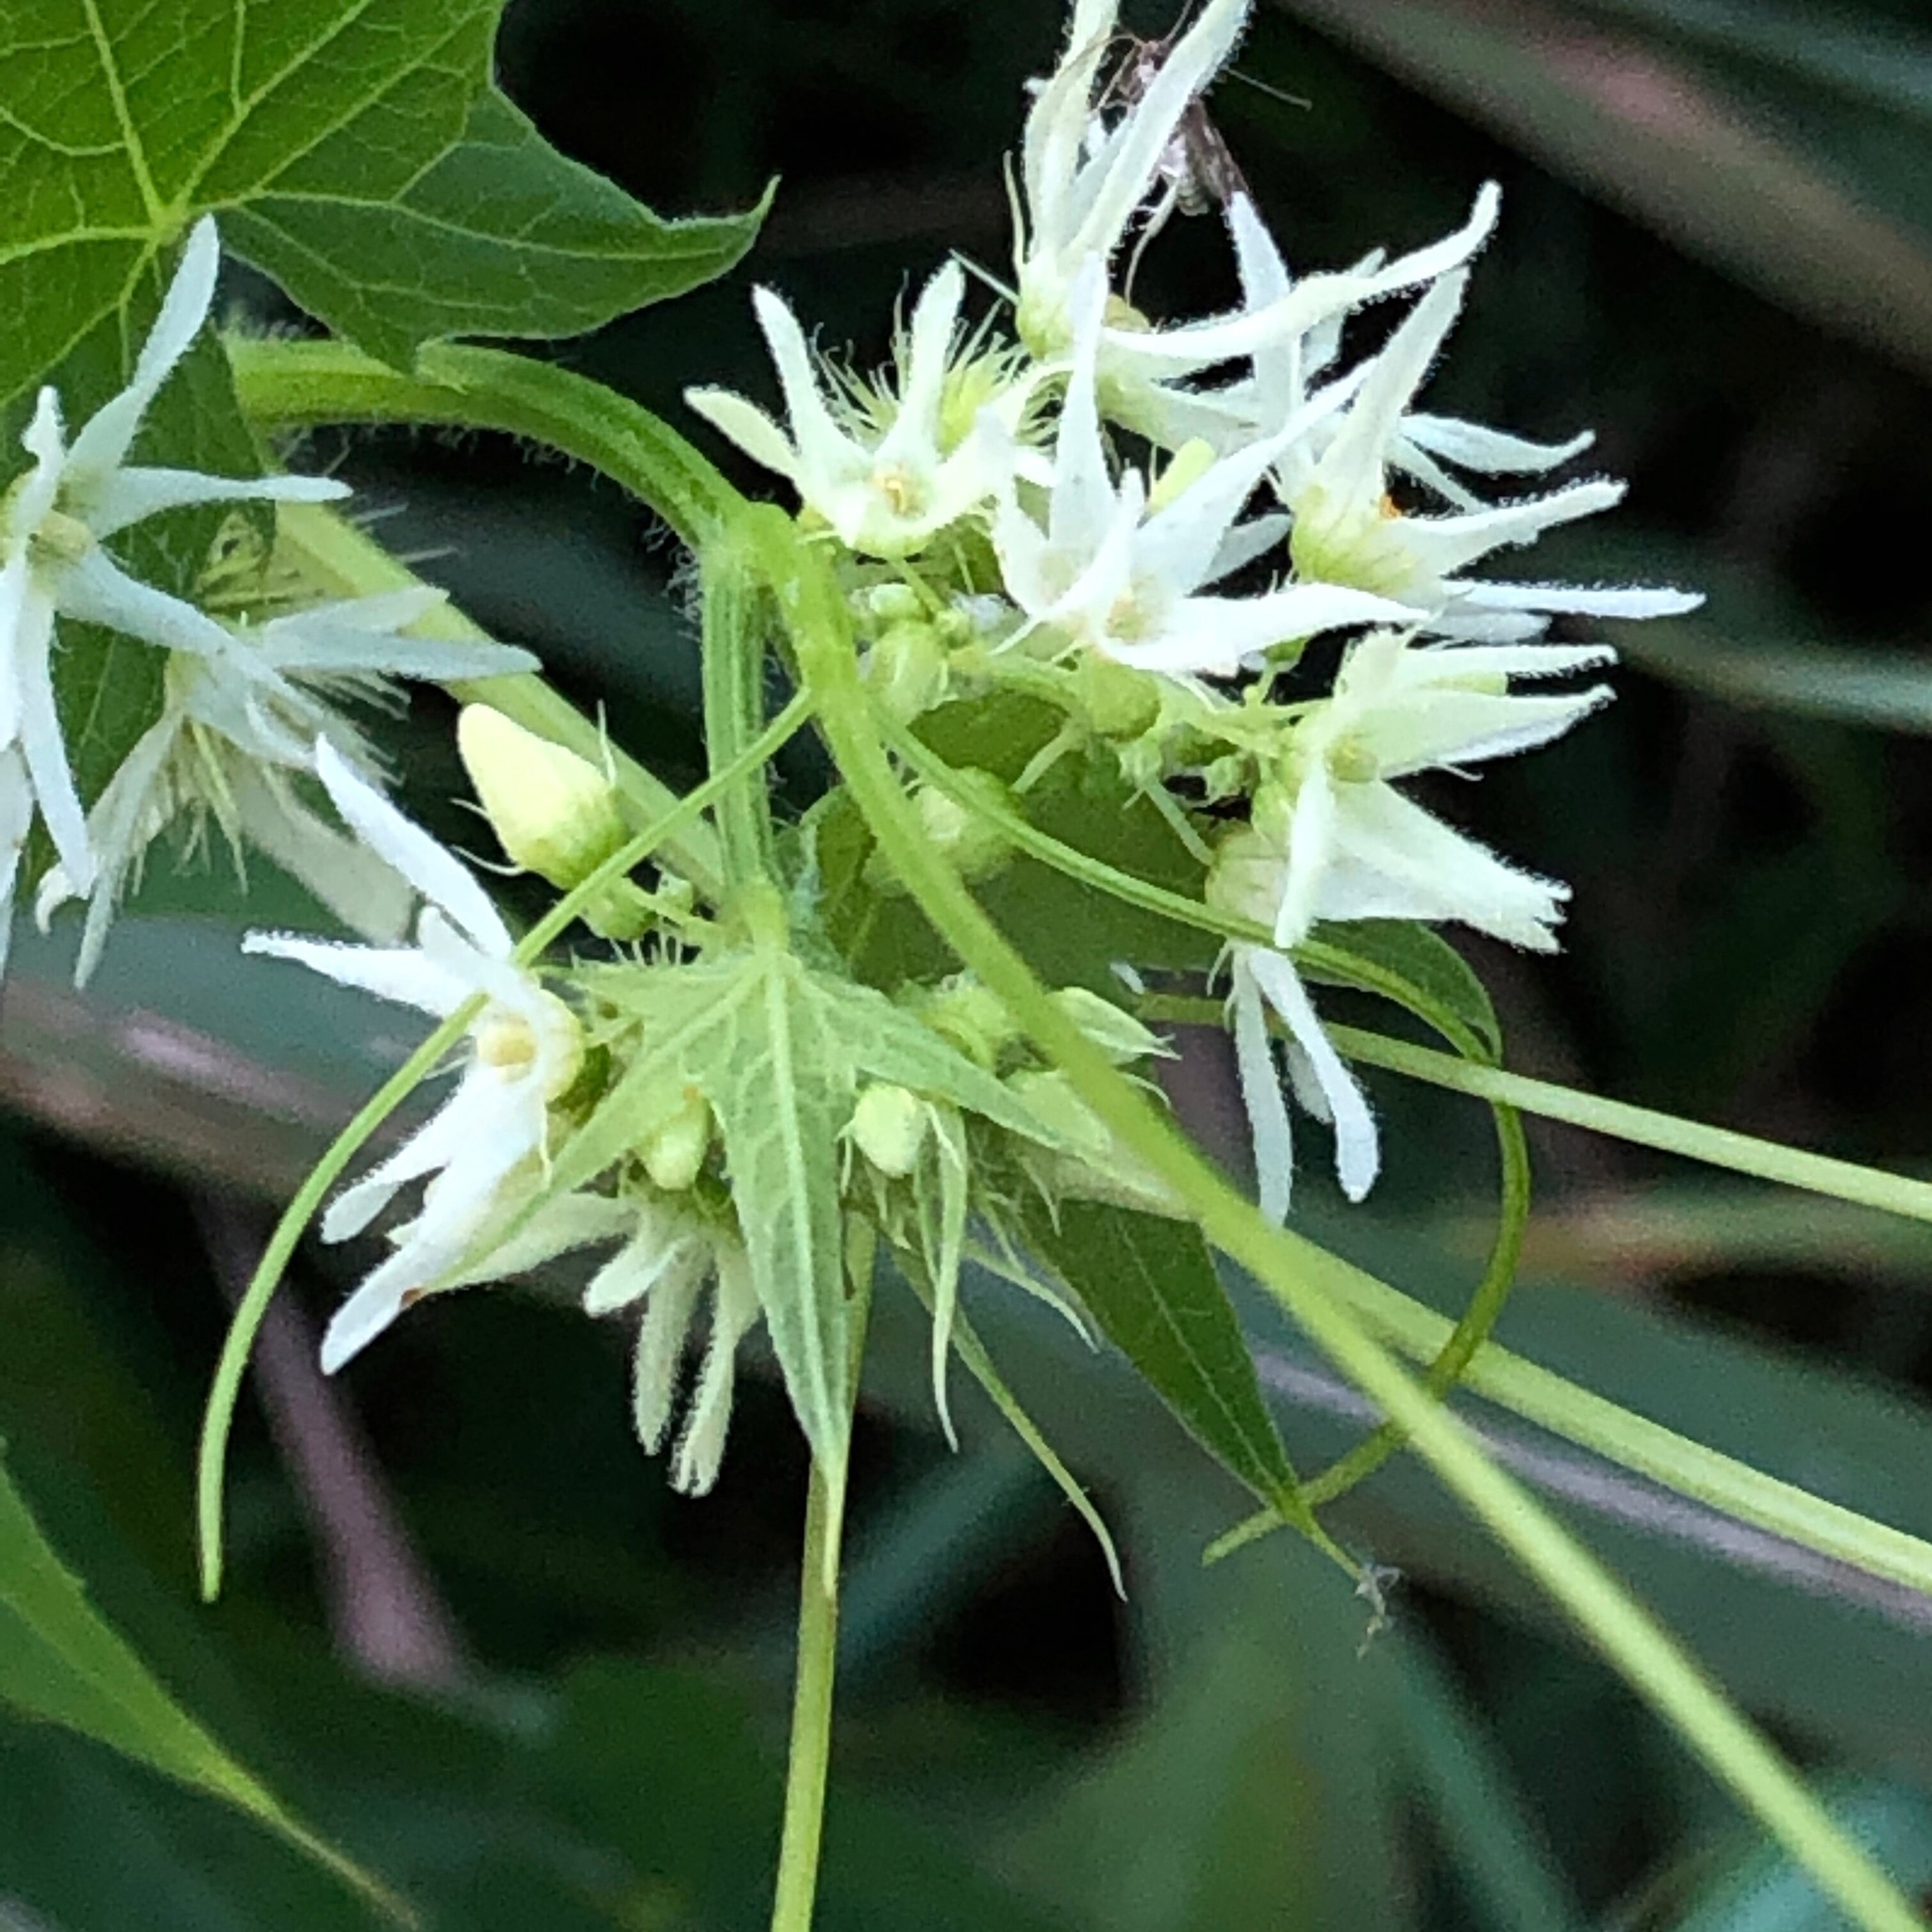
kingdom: Plantae
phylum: Tracheophyta
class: Magnoliopsida
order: Cucurbitales
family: Cucurbitaceae
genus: Echinocystis
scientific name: Echinocystis lobata
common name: Wild cucumber
